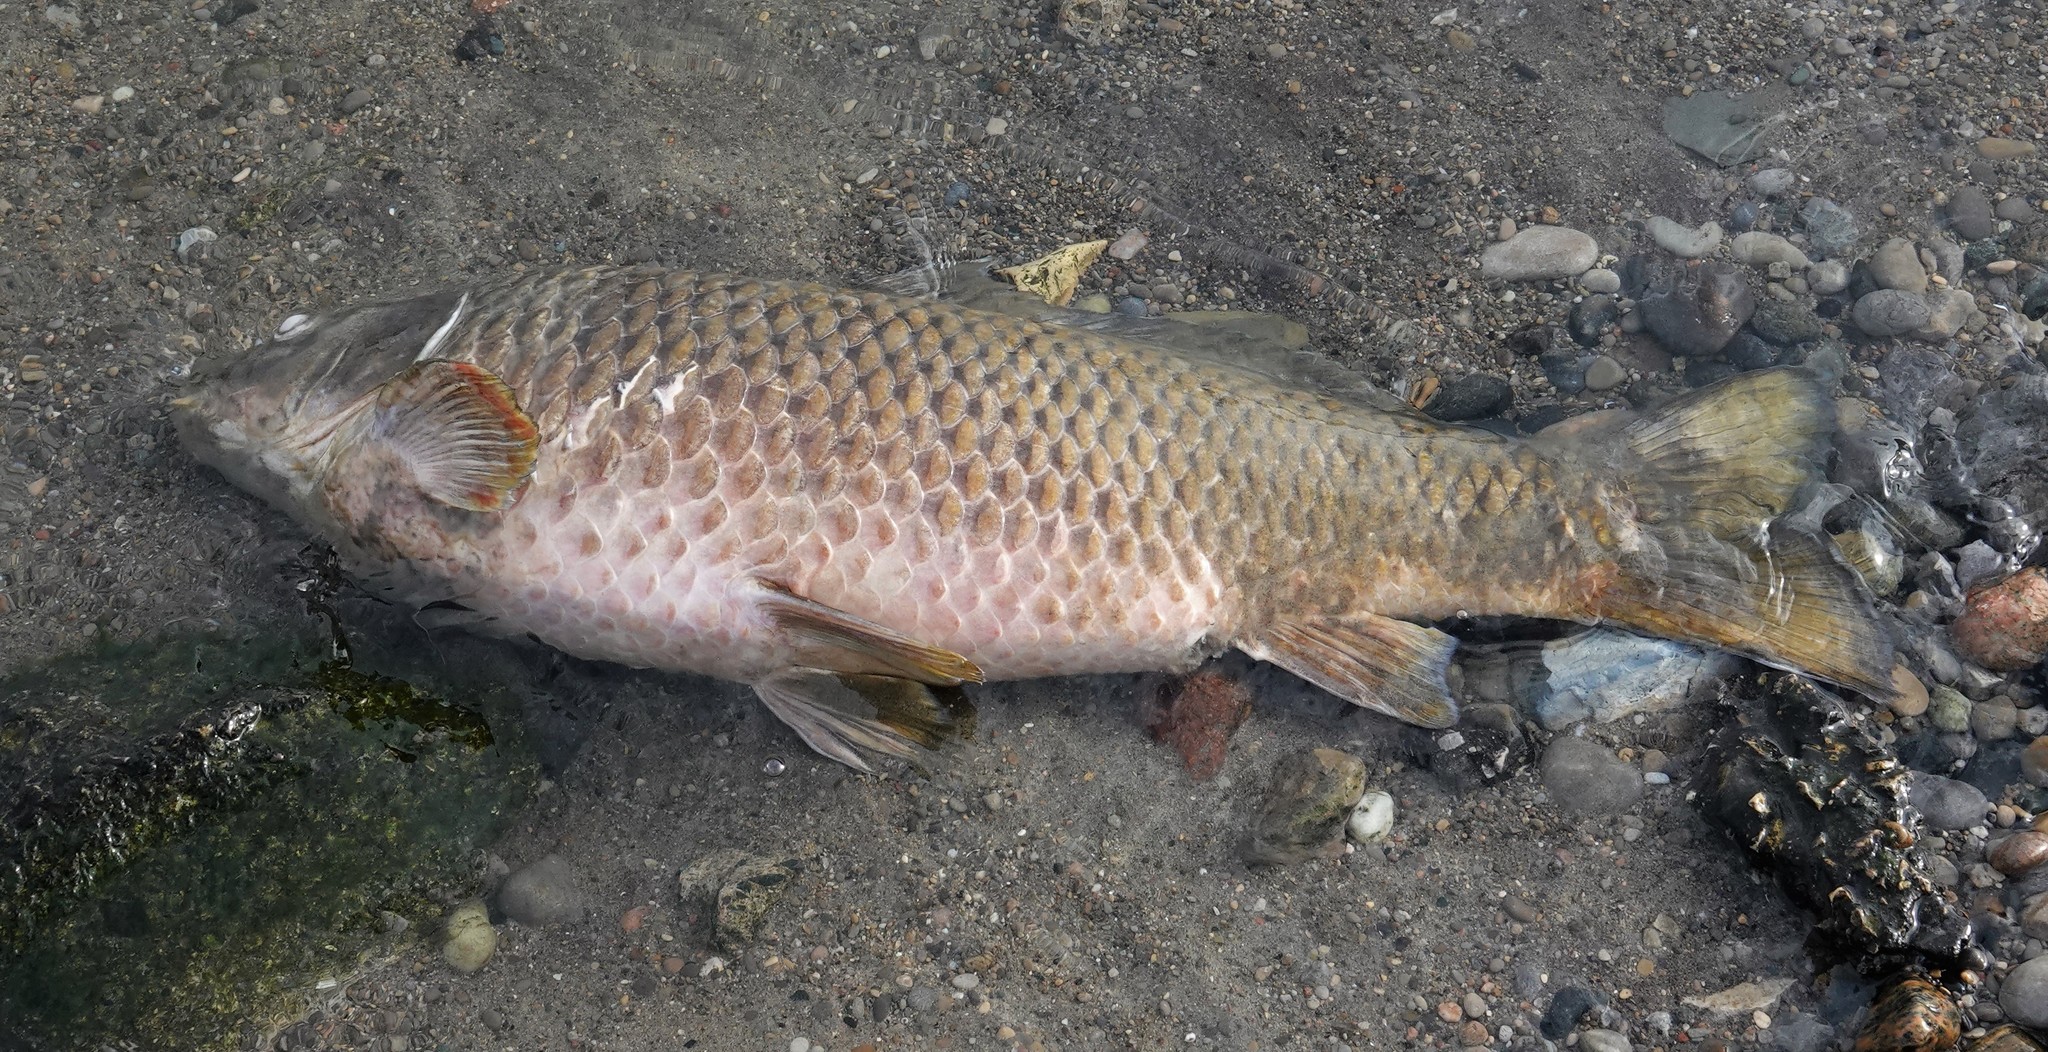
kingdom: Animalia
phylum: Chordata
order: Cypriniformes
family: Cyprinidae
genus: Cyprinus
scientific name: Cyprinus carpio
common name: Common carp
